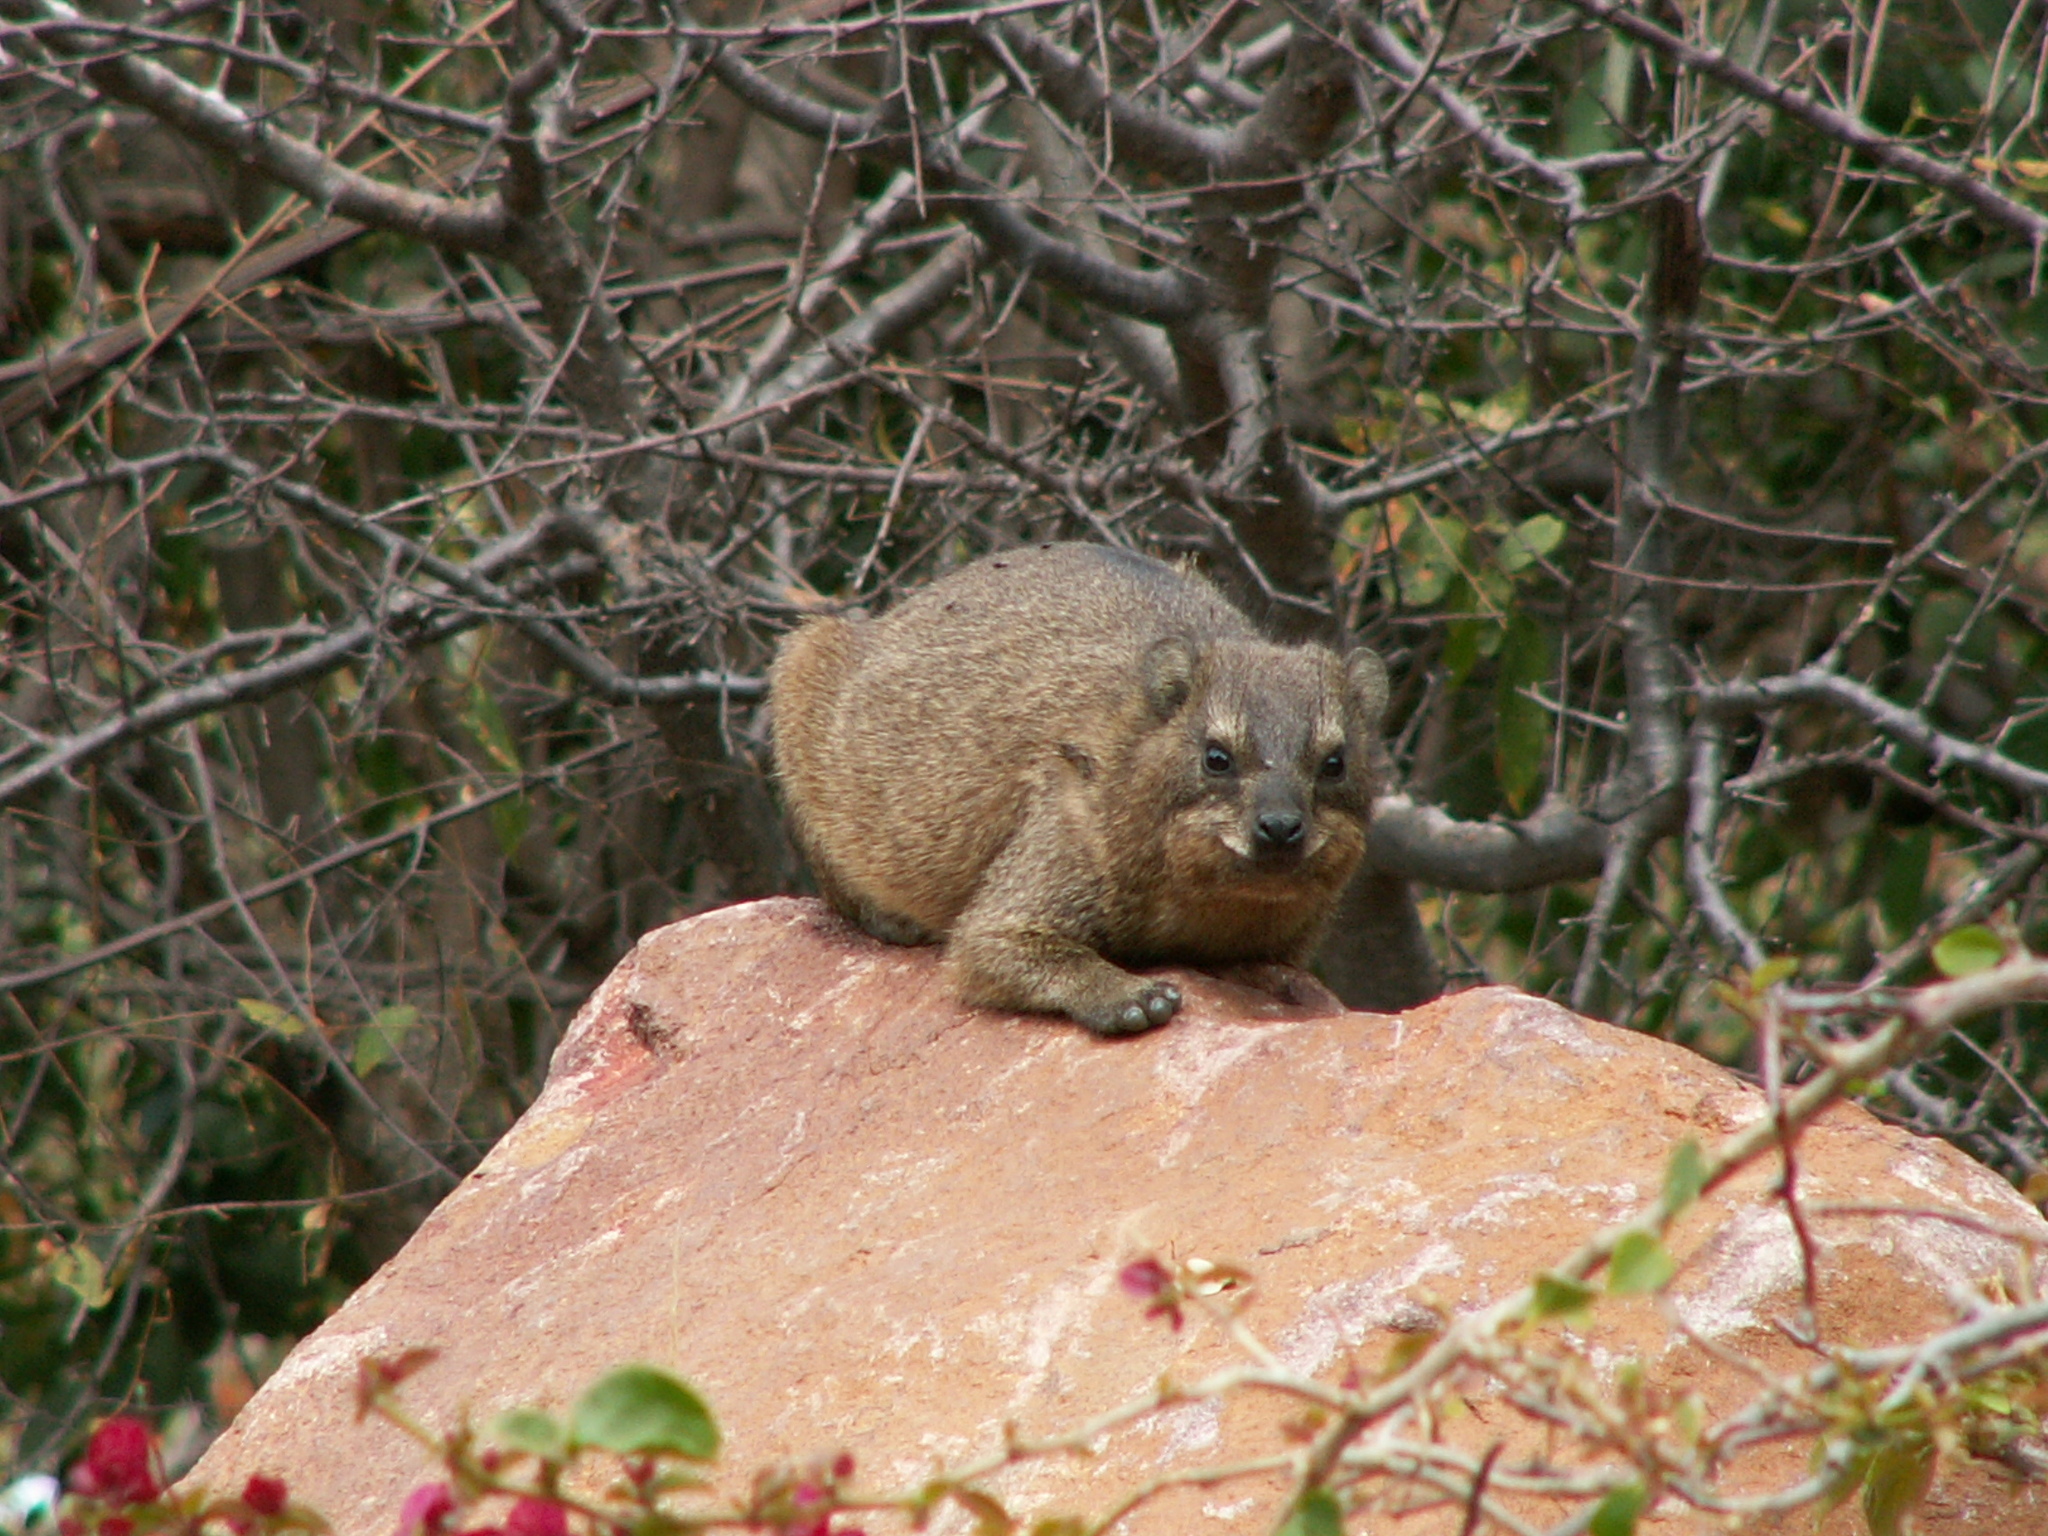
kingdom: Animalia
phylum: Chordata
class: Mammalia
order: Hyracoidea
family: Procaviidae
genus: Procavia
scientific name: Procavia capensis
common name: Rock hyrax
